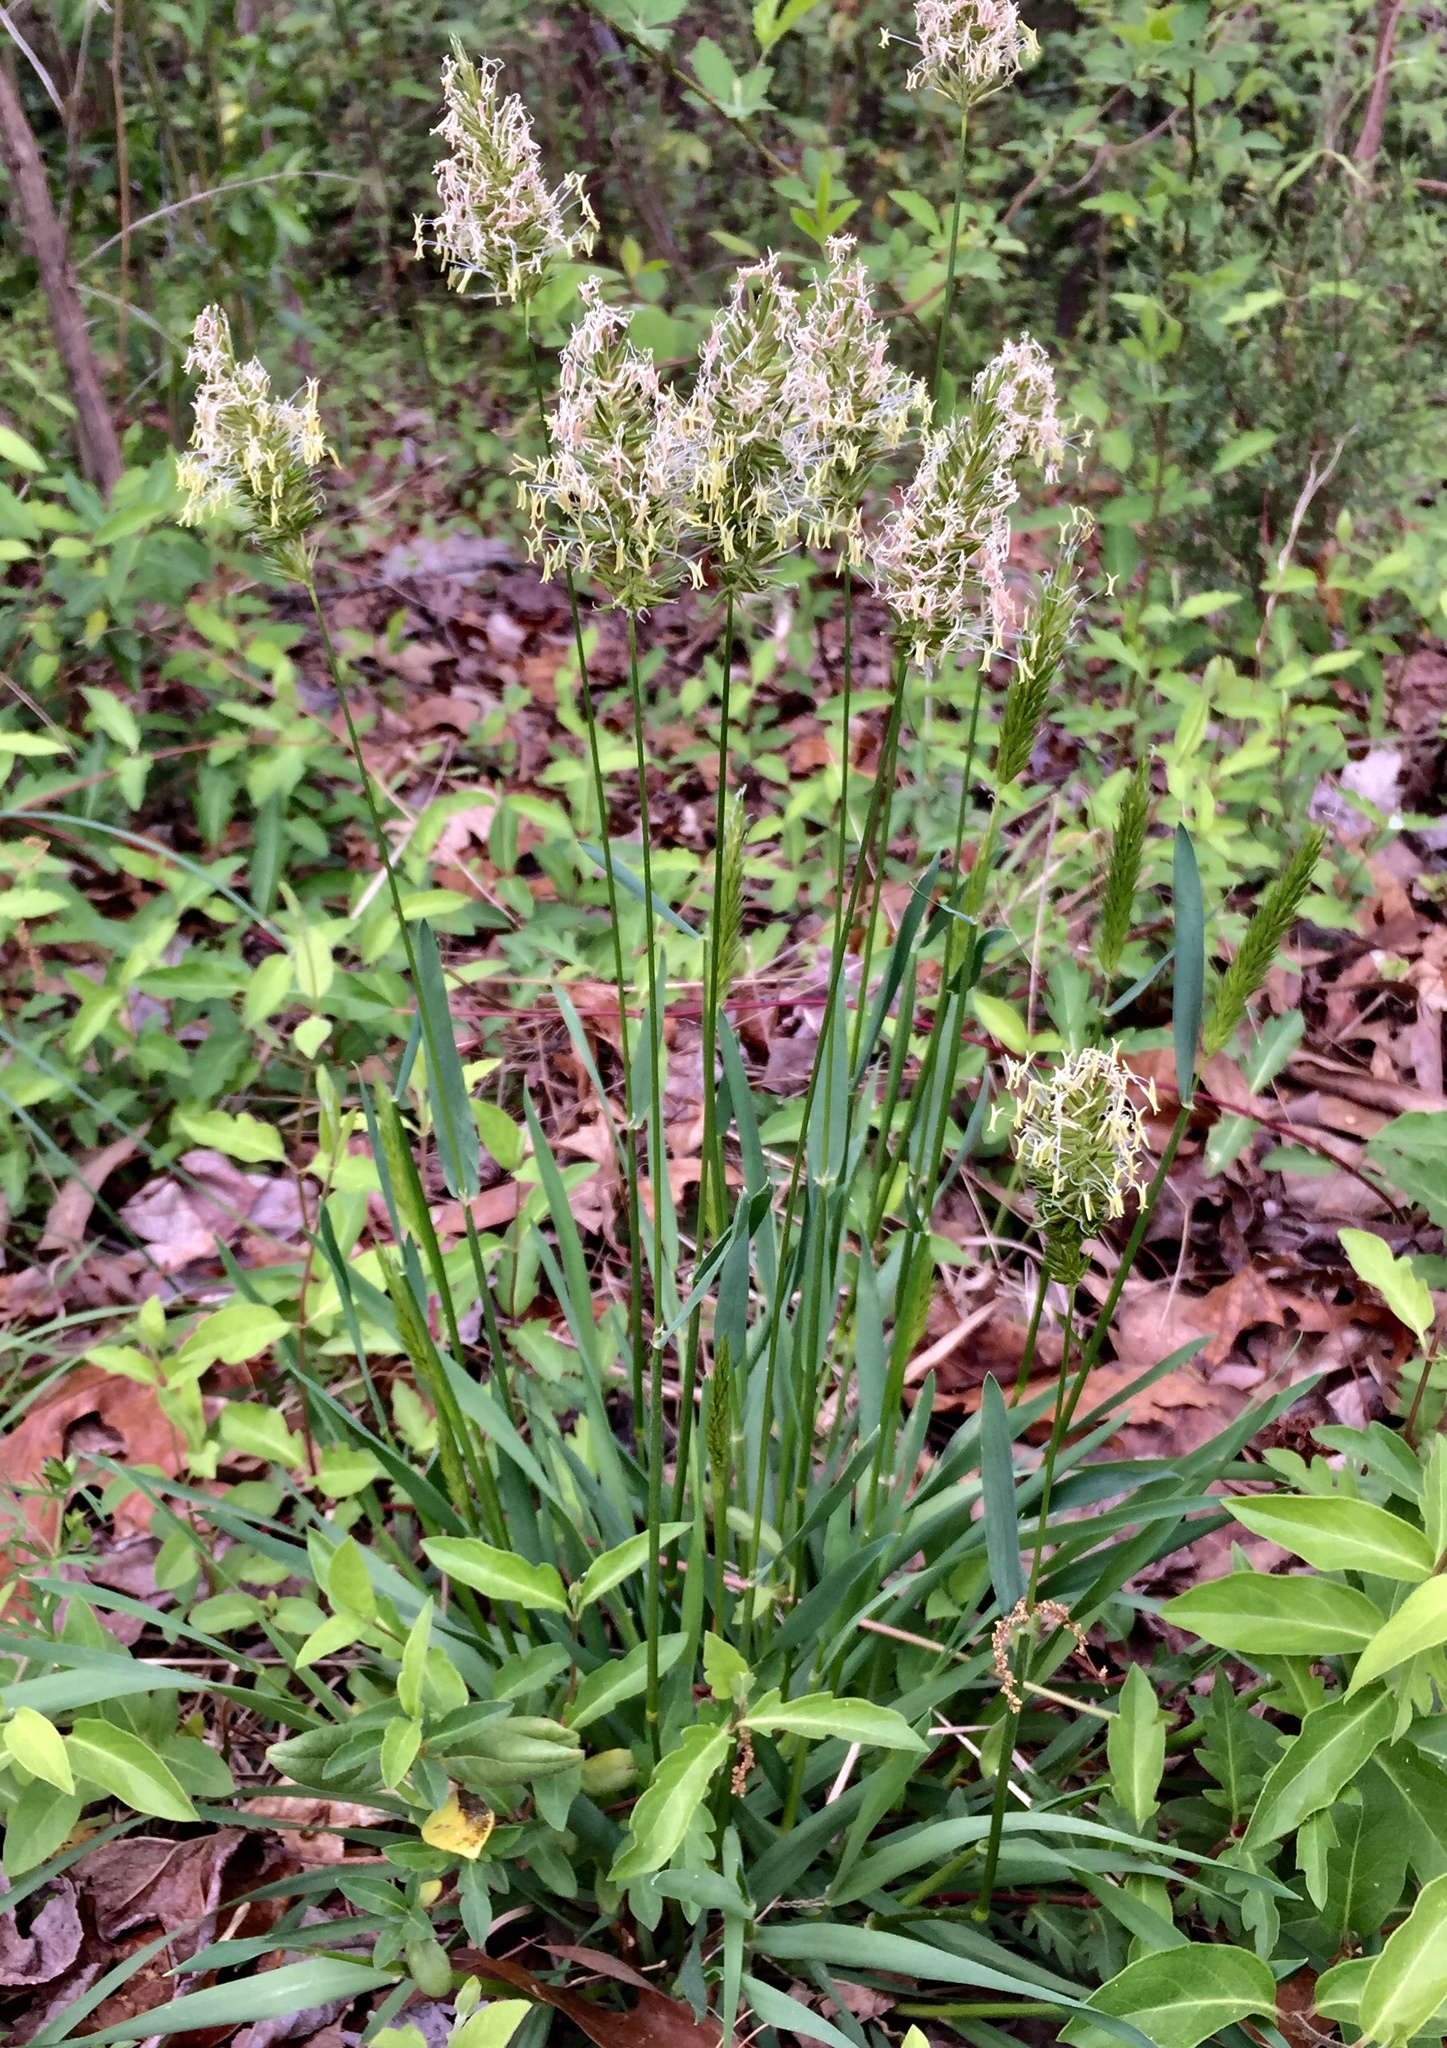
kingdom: Plantae
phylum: Tracheophyta
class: Liliopsida
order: Poales
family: Poaceae
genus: Anthoxanthum
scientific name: Anthoxanthum odoratum
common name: Sweet vernalgrass
